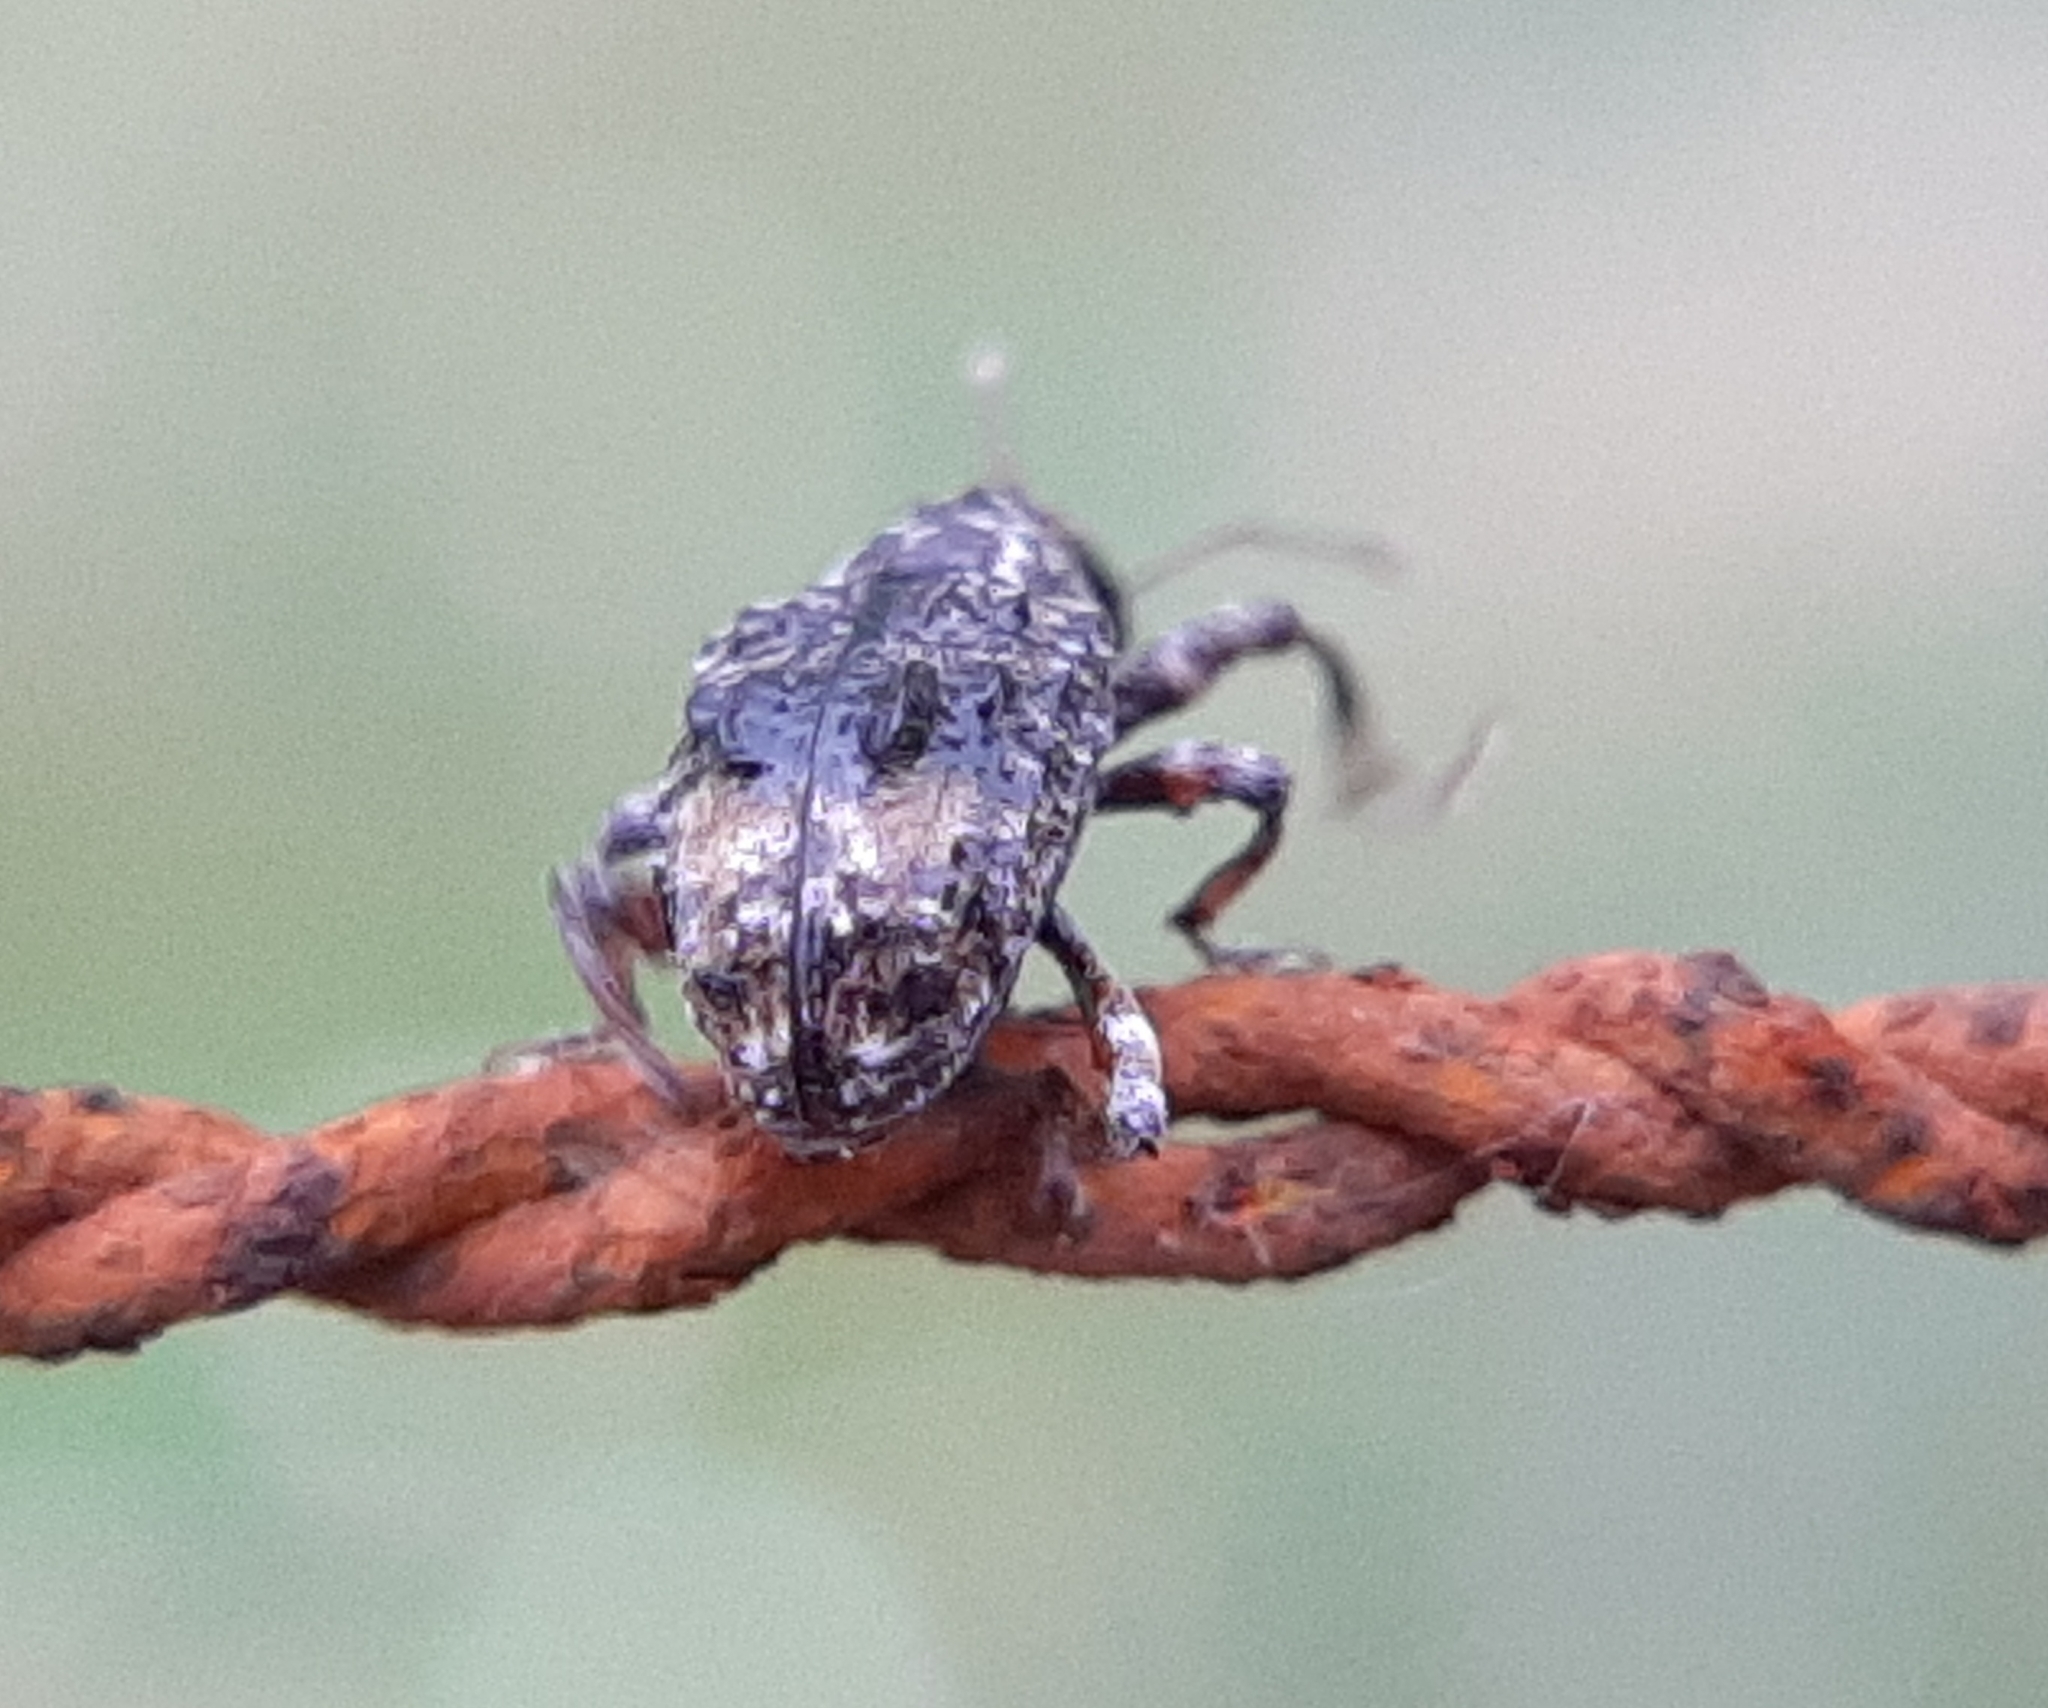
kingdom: Animalia
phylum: Arthropoda
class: Insecta
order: Coleoptera
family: Curculionidae
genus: Conotrachelus
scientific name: Conotrachelus nenuphar
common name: Plum curculio
